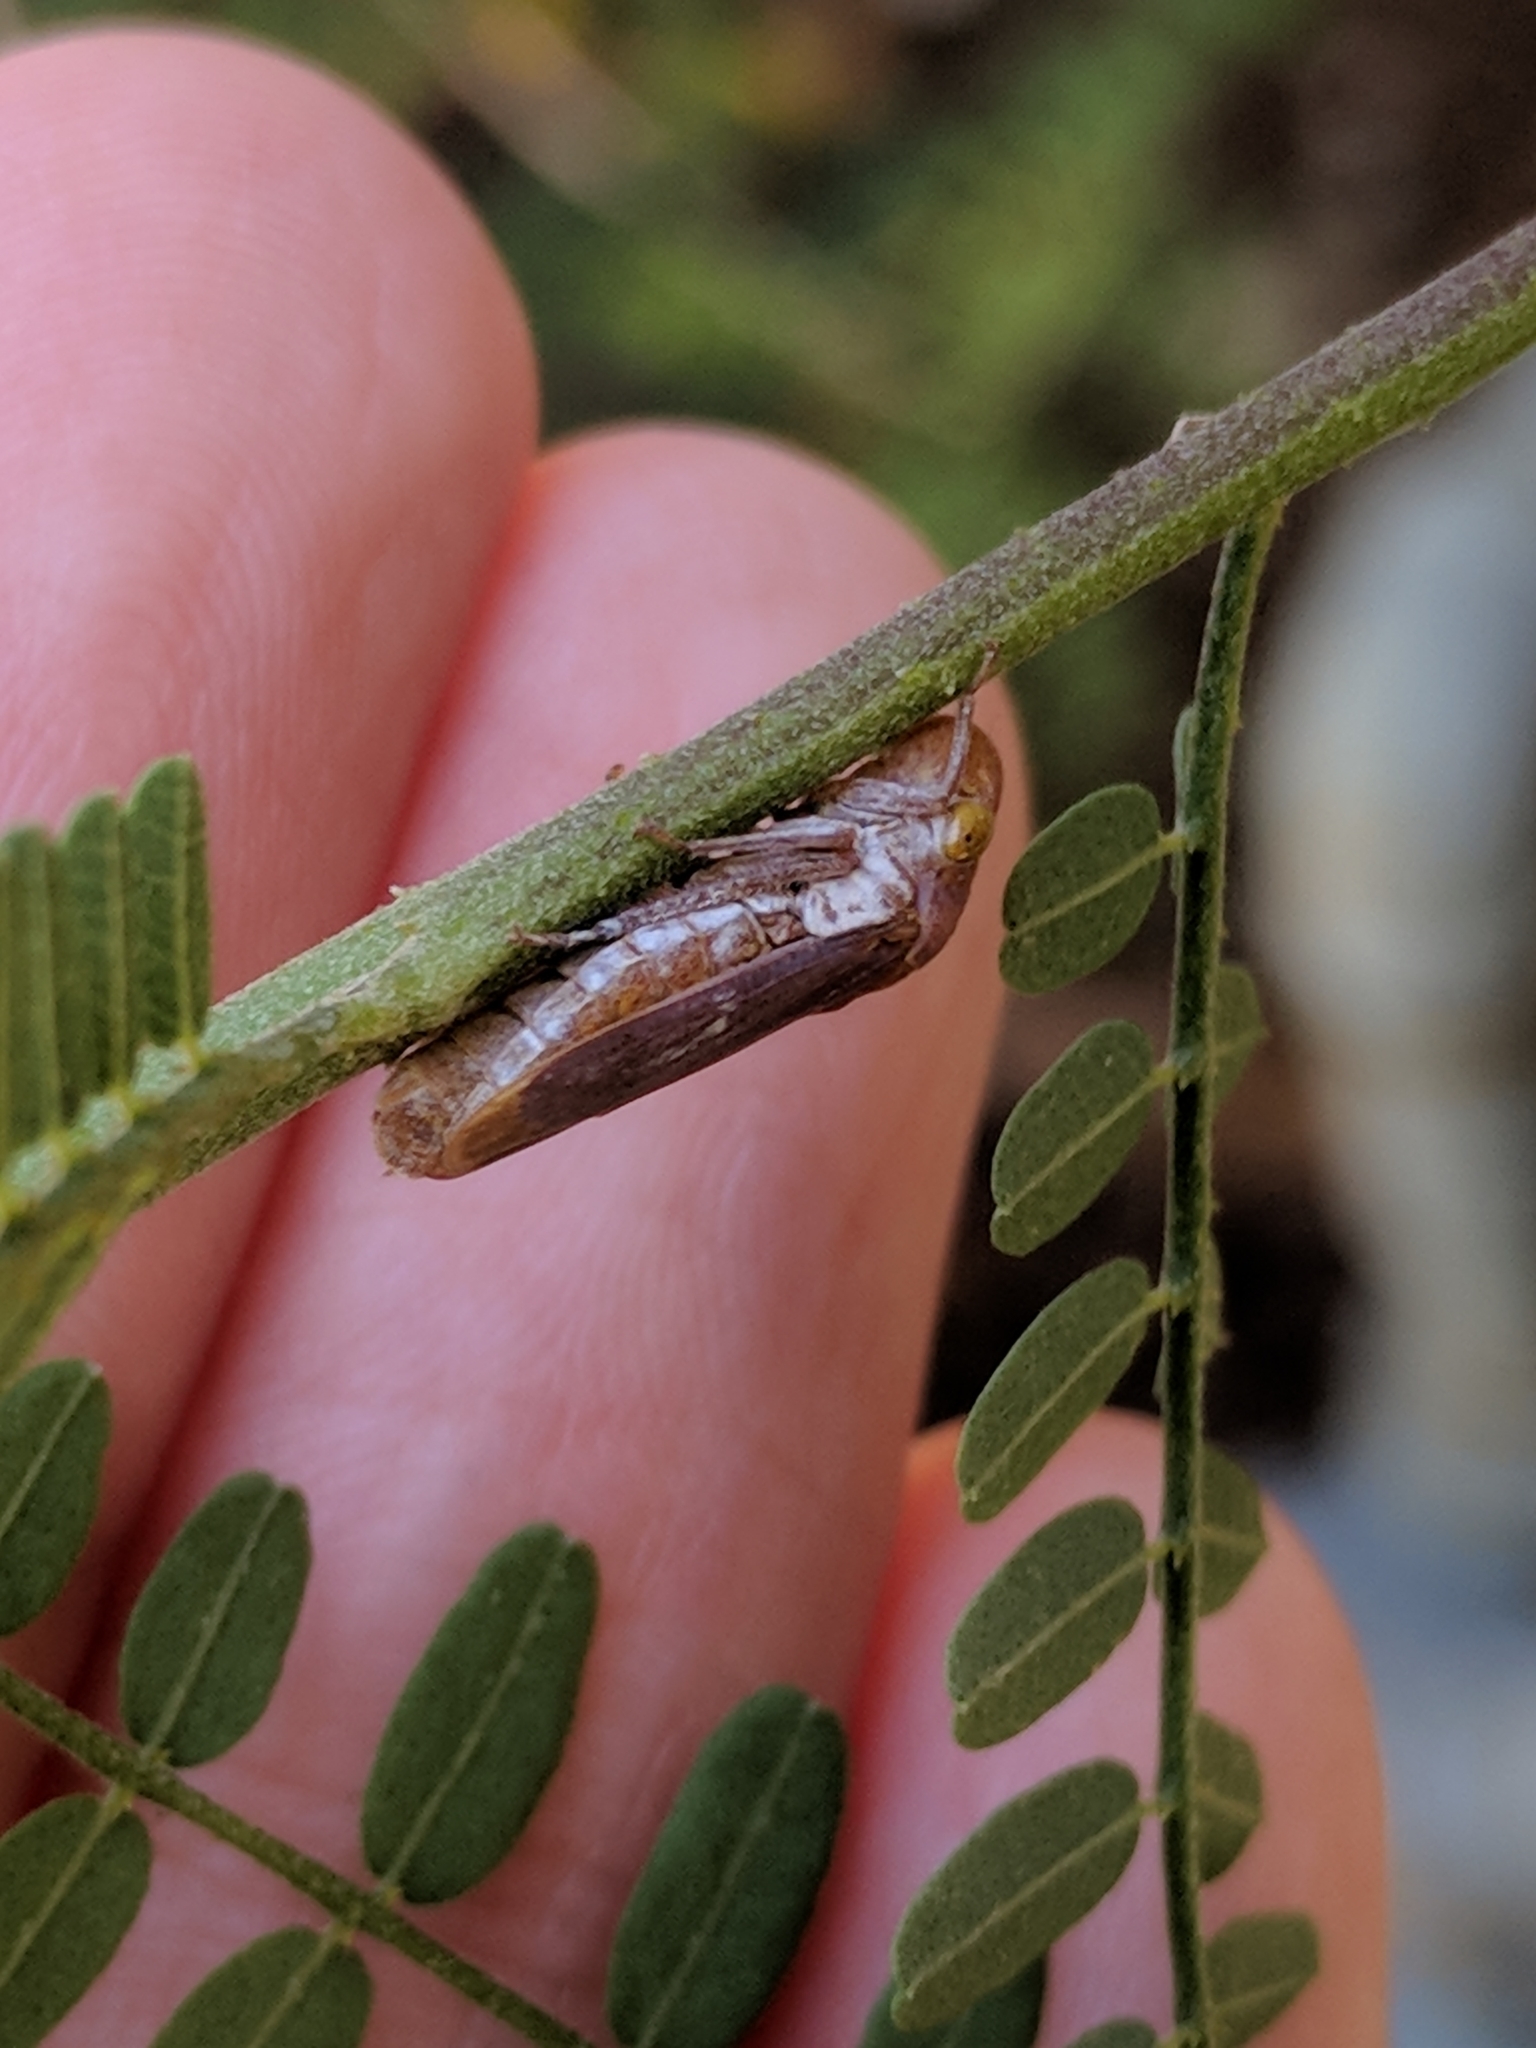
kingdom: Animalia
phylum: Arthropoda
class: Insecta
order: Hemiptera
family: Cicadellidae
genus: Oncometopia
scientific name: Oncometopia hamiltoni
